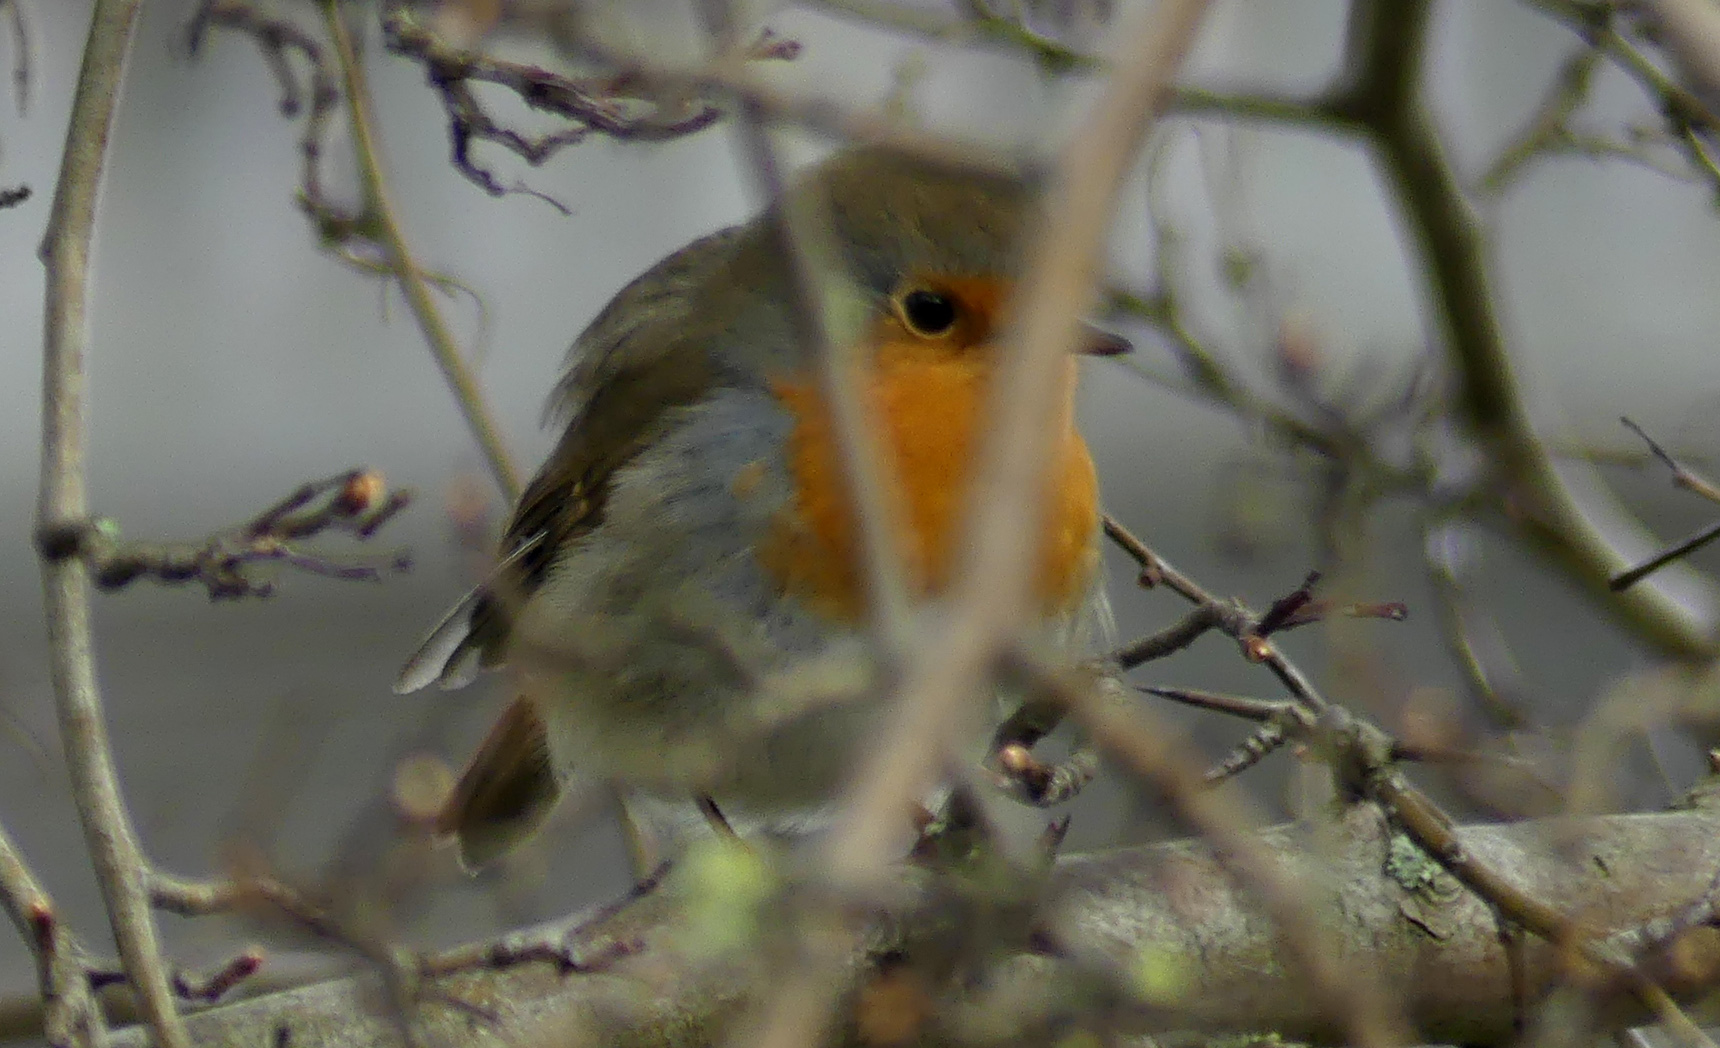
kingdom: Animalia
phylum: Chordata
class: Aves
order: Passeriformes
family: Muscicapidae
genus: Erithacus
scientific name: Erithacus rubecula
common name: European robin
